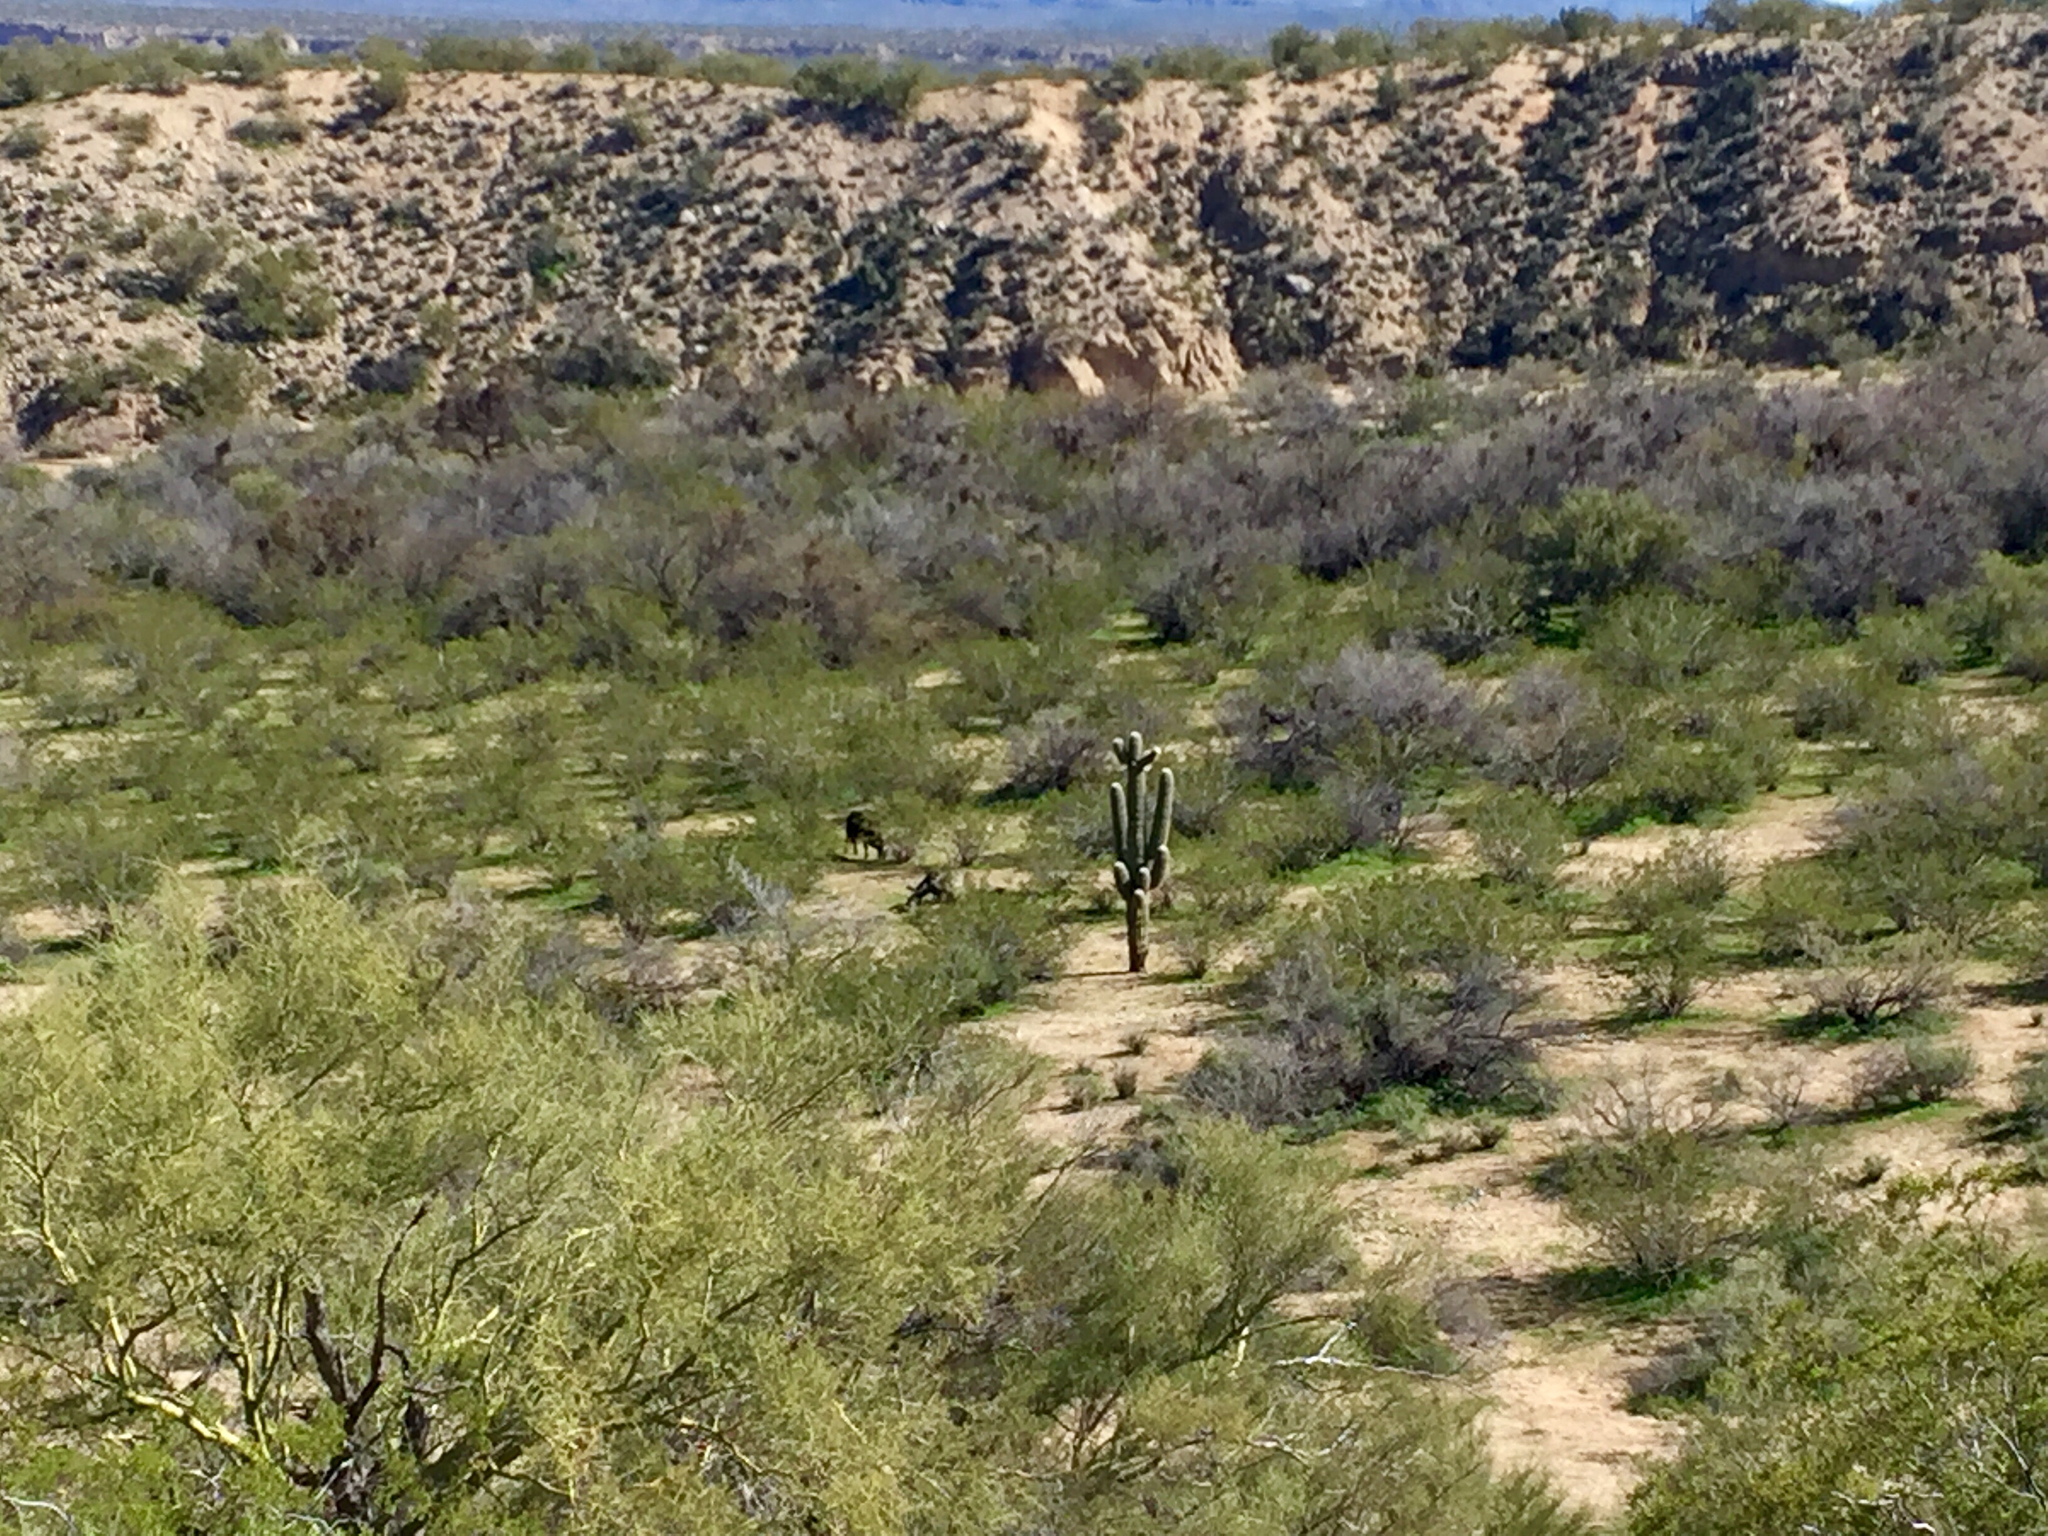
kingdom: Plantae
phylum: Tracheophyta
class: Magnoliopsida
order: Caryophyllales
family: Cactaceae
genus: Carnegiea
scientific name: Carnegiea gigantea
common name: Saguaro
